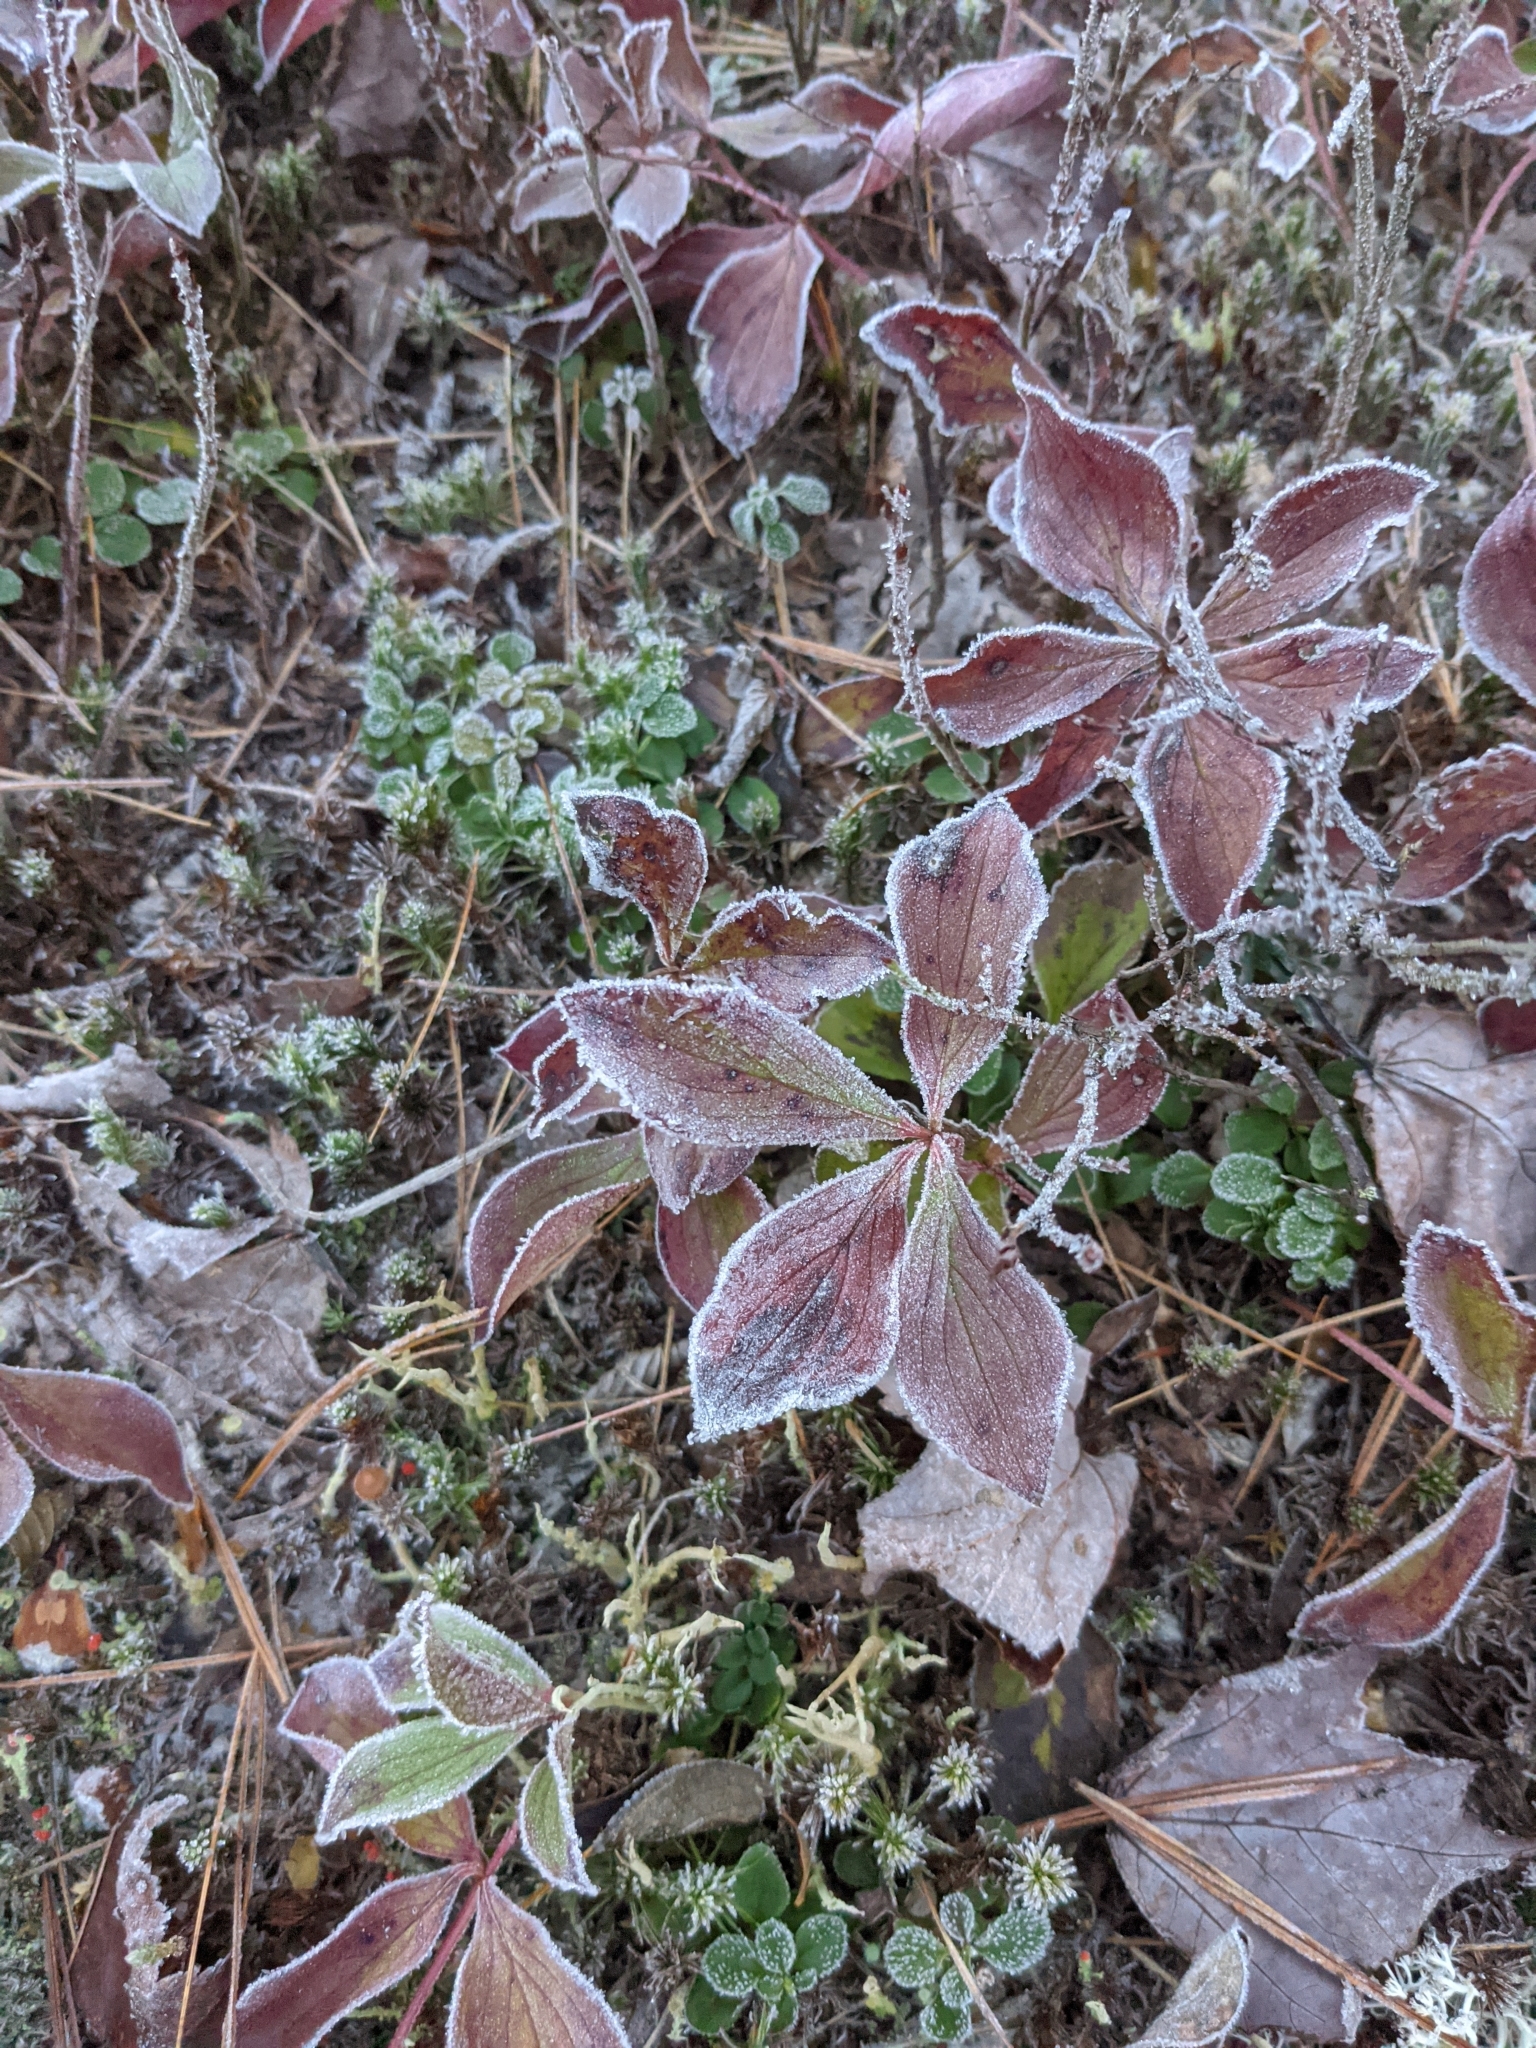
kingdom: Plantae
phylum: Tracheophyta
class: Magnoliopsida
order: Cornales
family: Cornaceae
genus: Cornus
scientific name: Cornus canadensis
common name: Creeping dogwood
